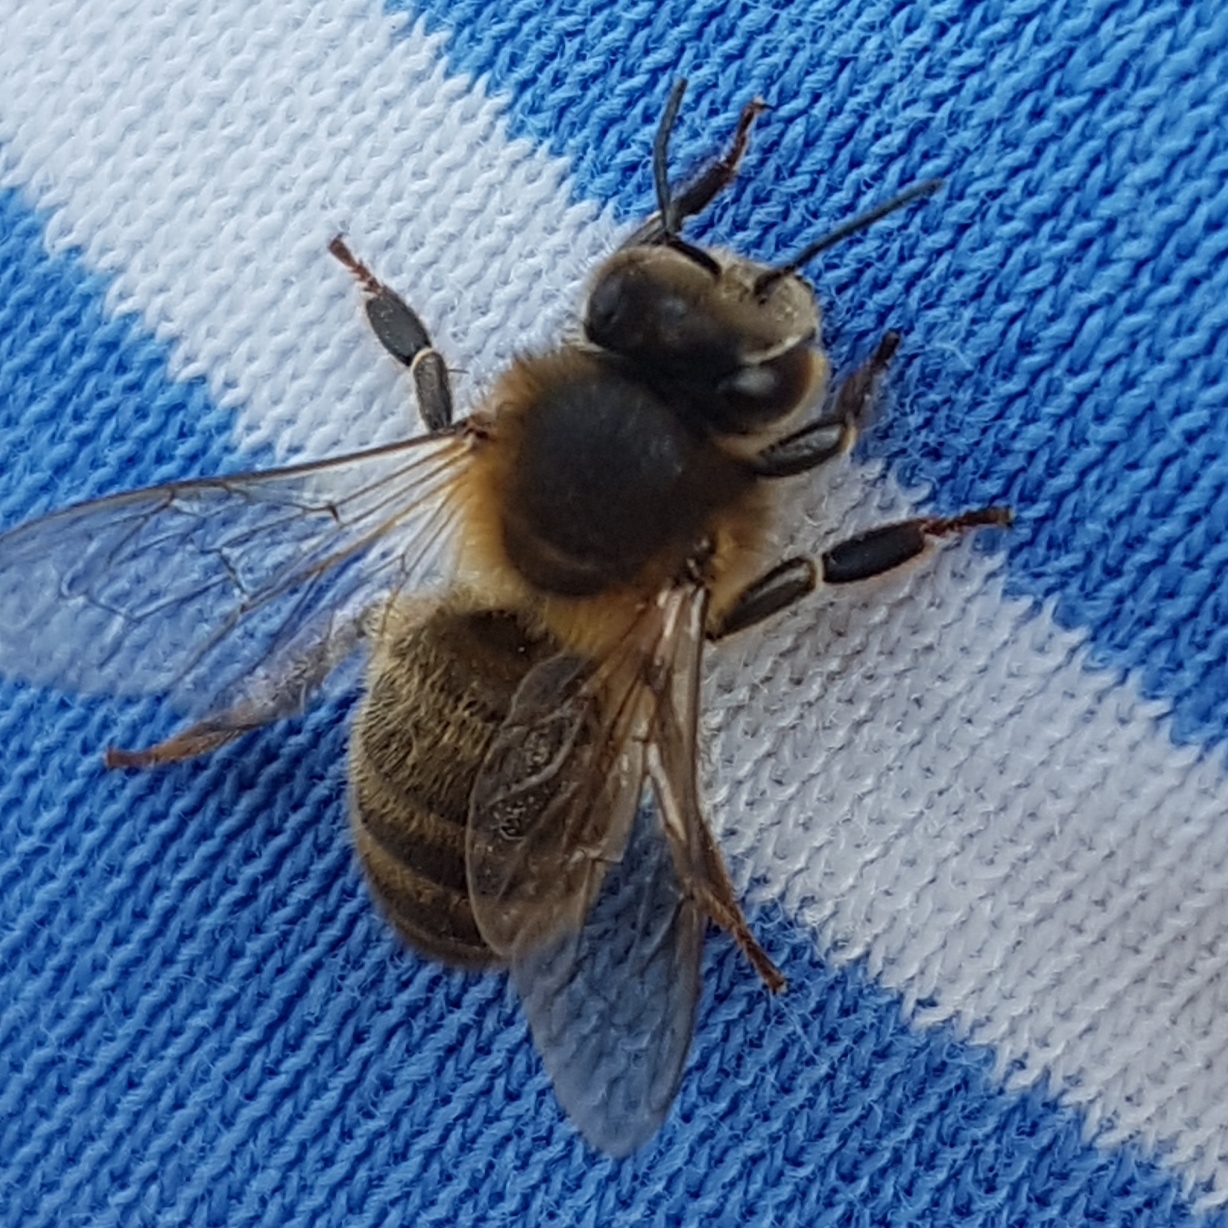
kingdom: Animalia
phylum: Arthropoda
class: Insecta
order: Hymenoptera
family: Apidae
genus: Apis
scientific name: Apis mellifera
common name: Honey bee
